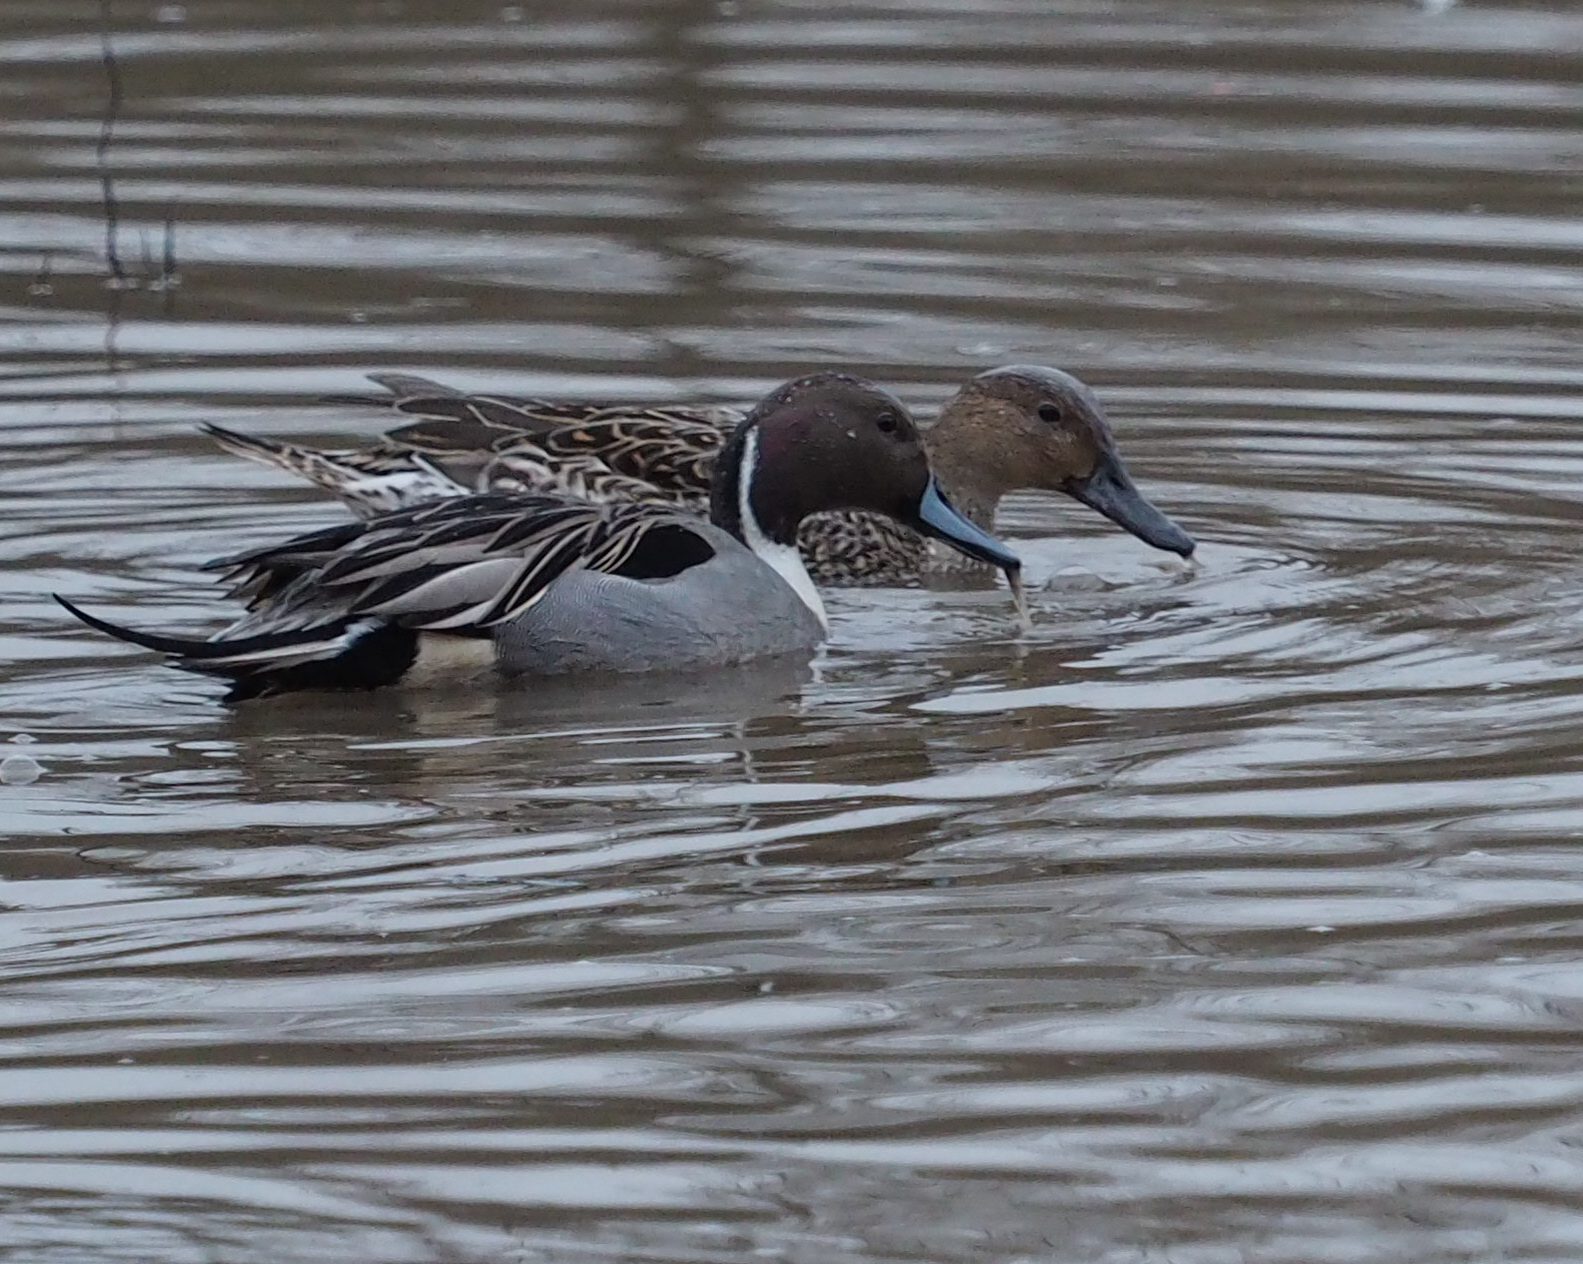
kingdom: Animalia
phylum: Chordata
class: Aves
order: Anseriformes
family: Anatidae
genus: Anas
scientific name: Anas acuta
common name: Northern pintail
